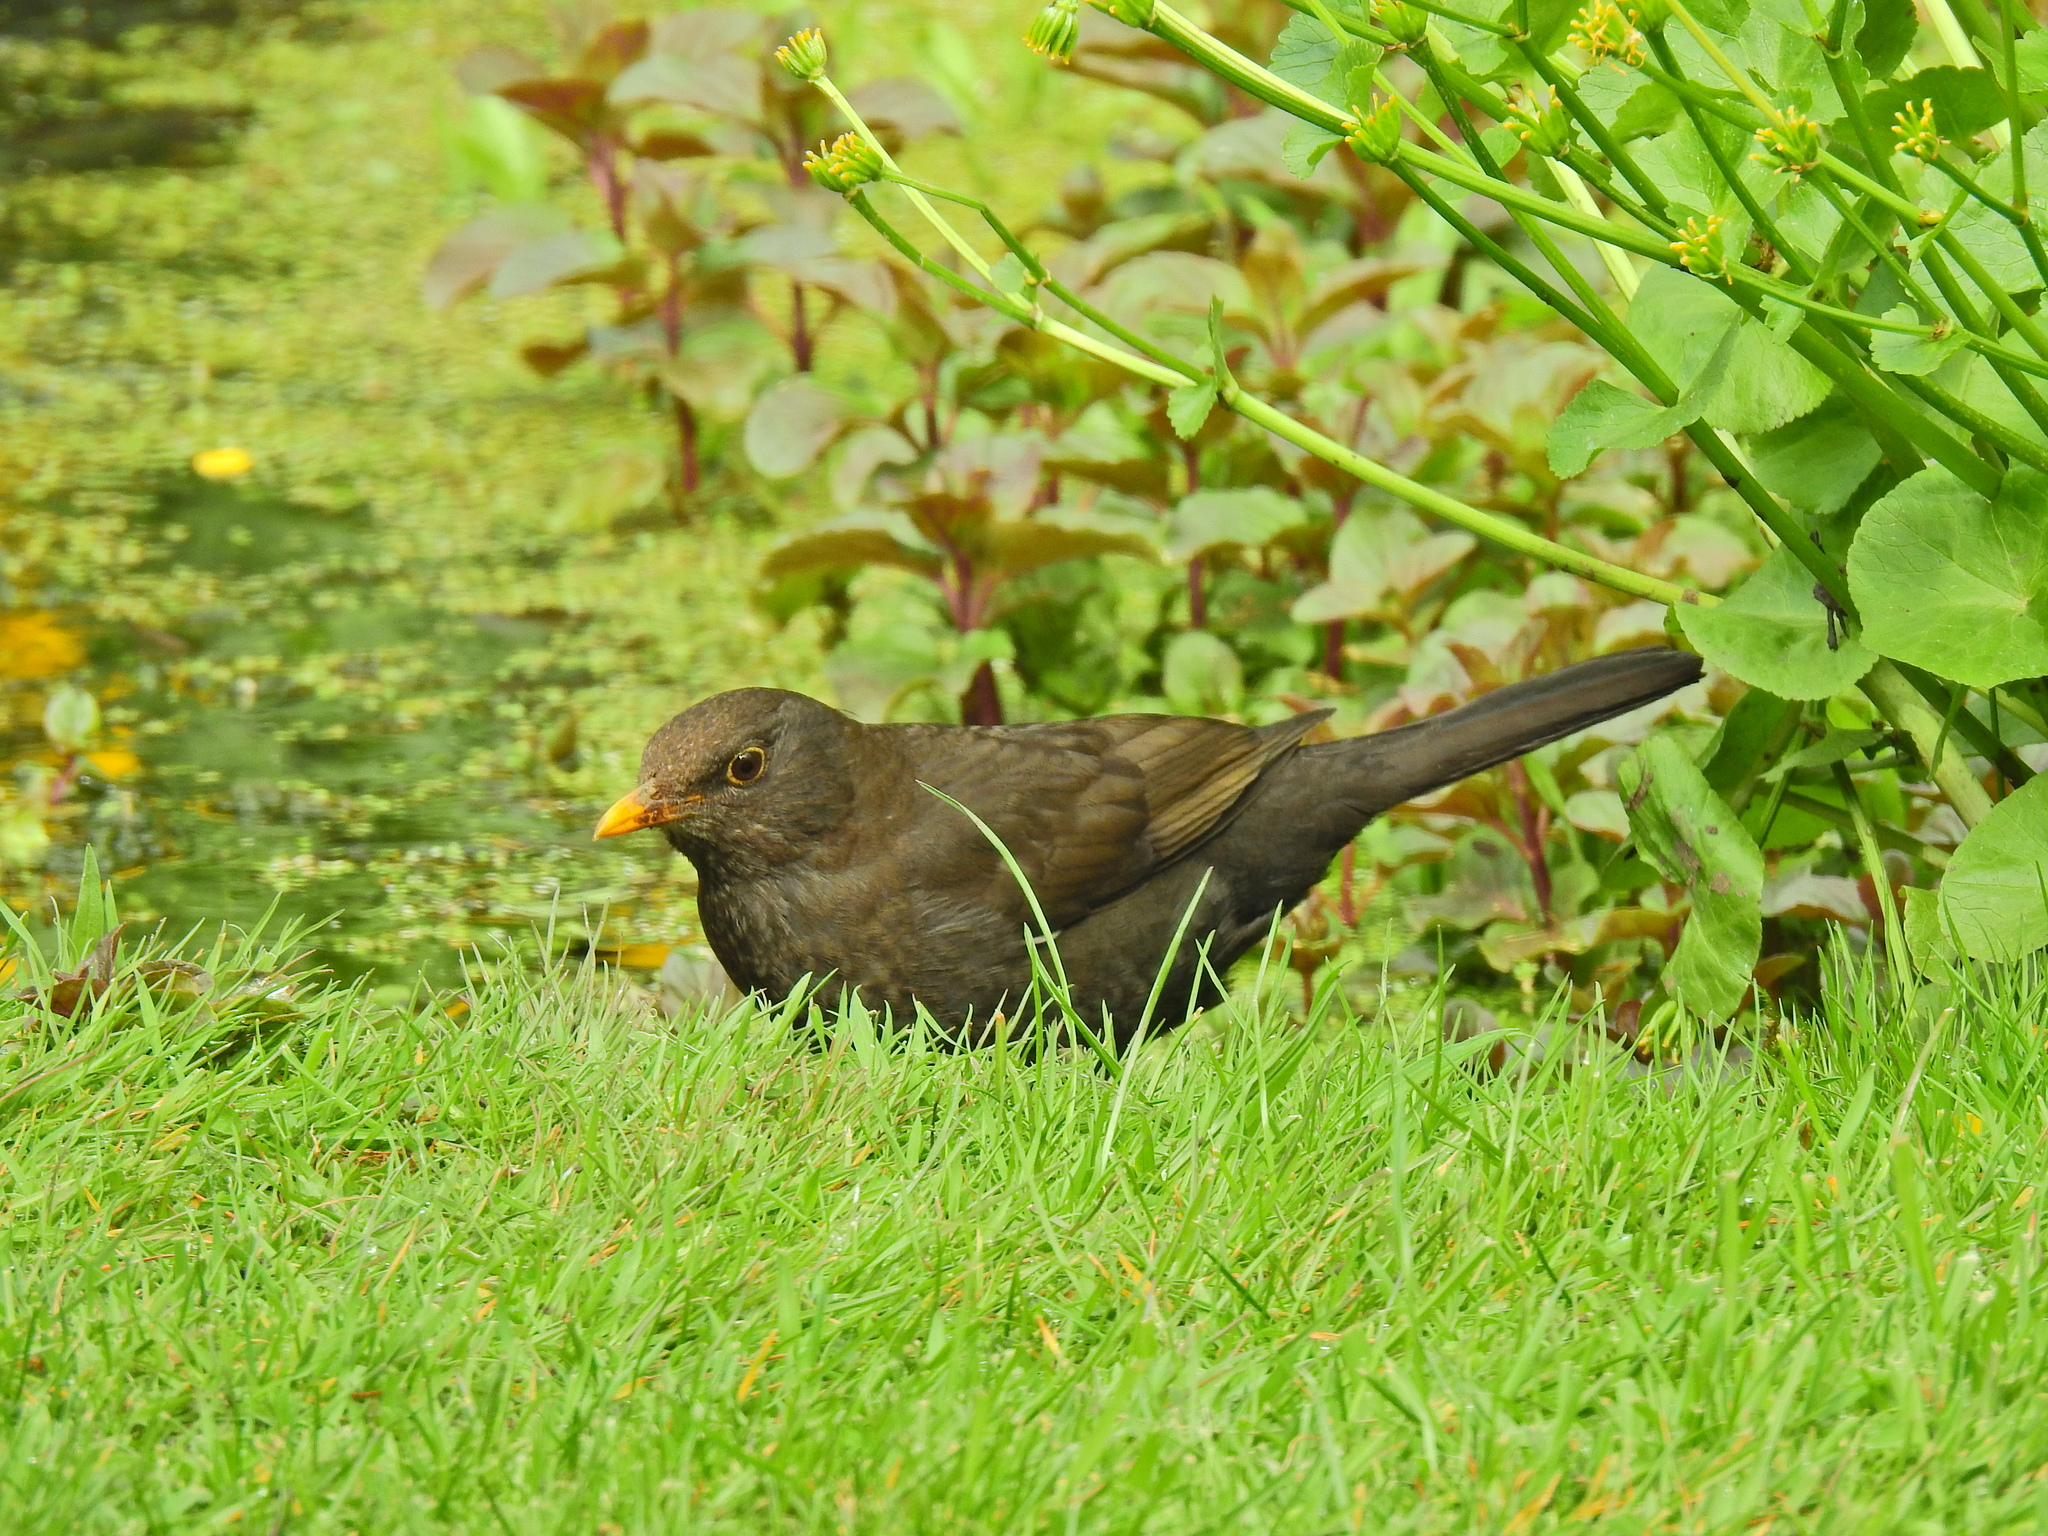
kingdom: Animalia
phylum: Chordata
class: Aves
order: Passeriformes
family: Turdidae
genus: Turdus
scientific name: Turdus merula
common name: Common blackbird
